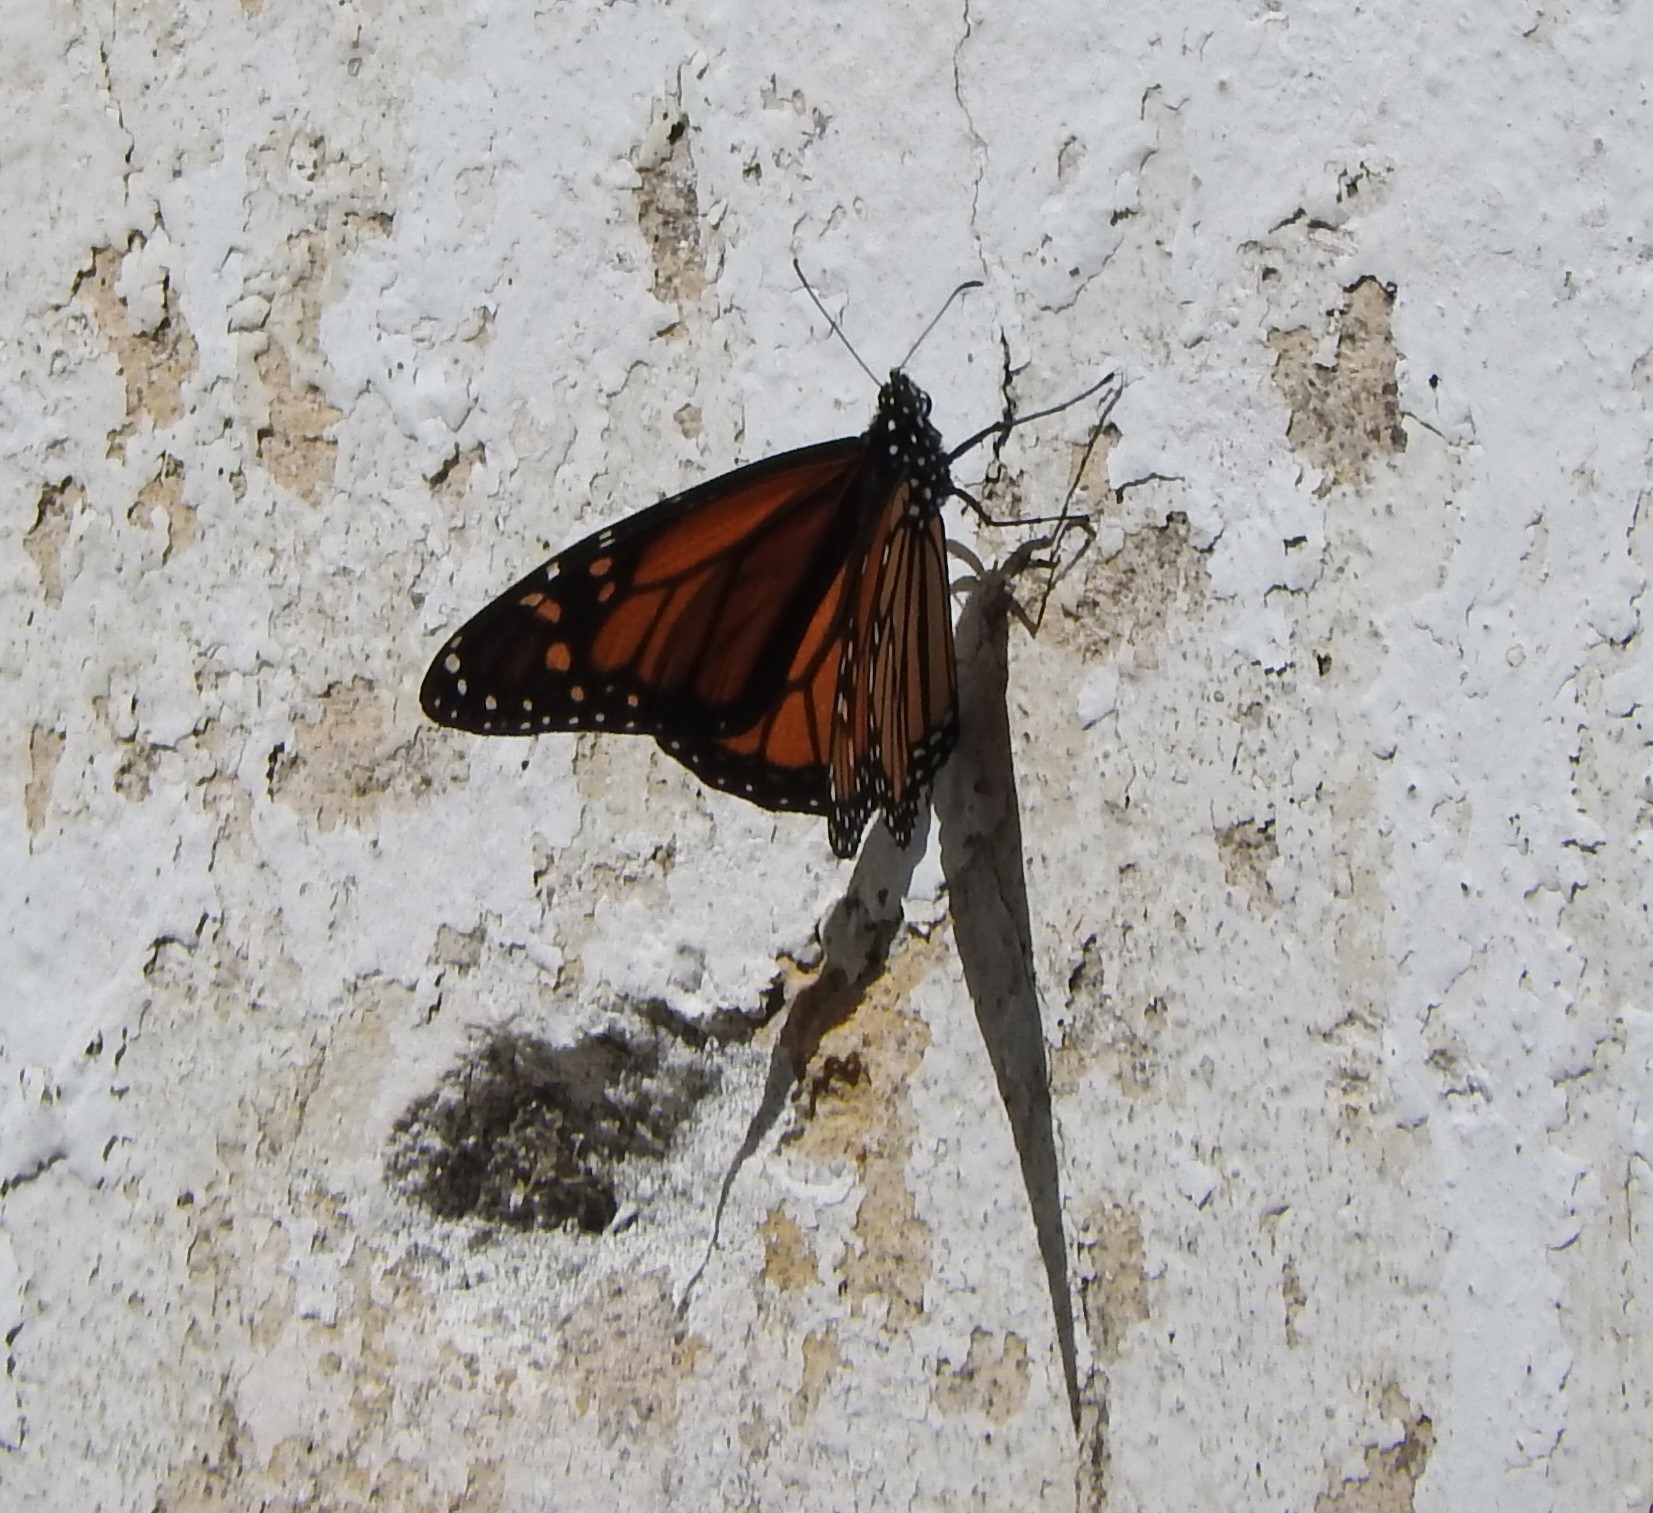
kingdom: Animalia
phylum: Arthropoda
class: Insecta
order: Lepidoptera
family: Nymphalidae
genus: Danaus
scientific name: Danaus plexippus
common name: Monarch
